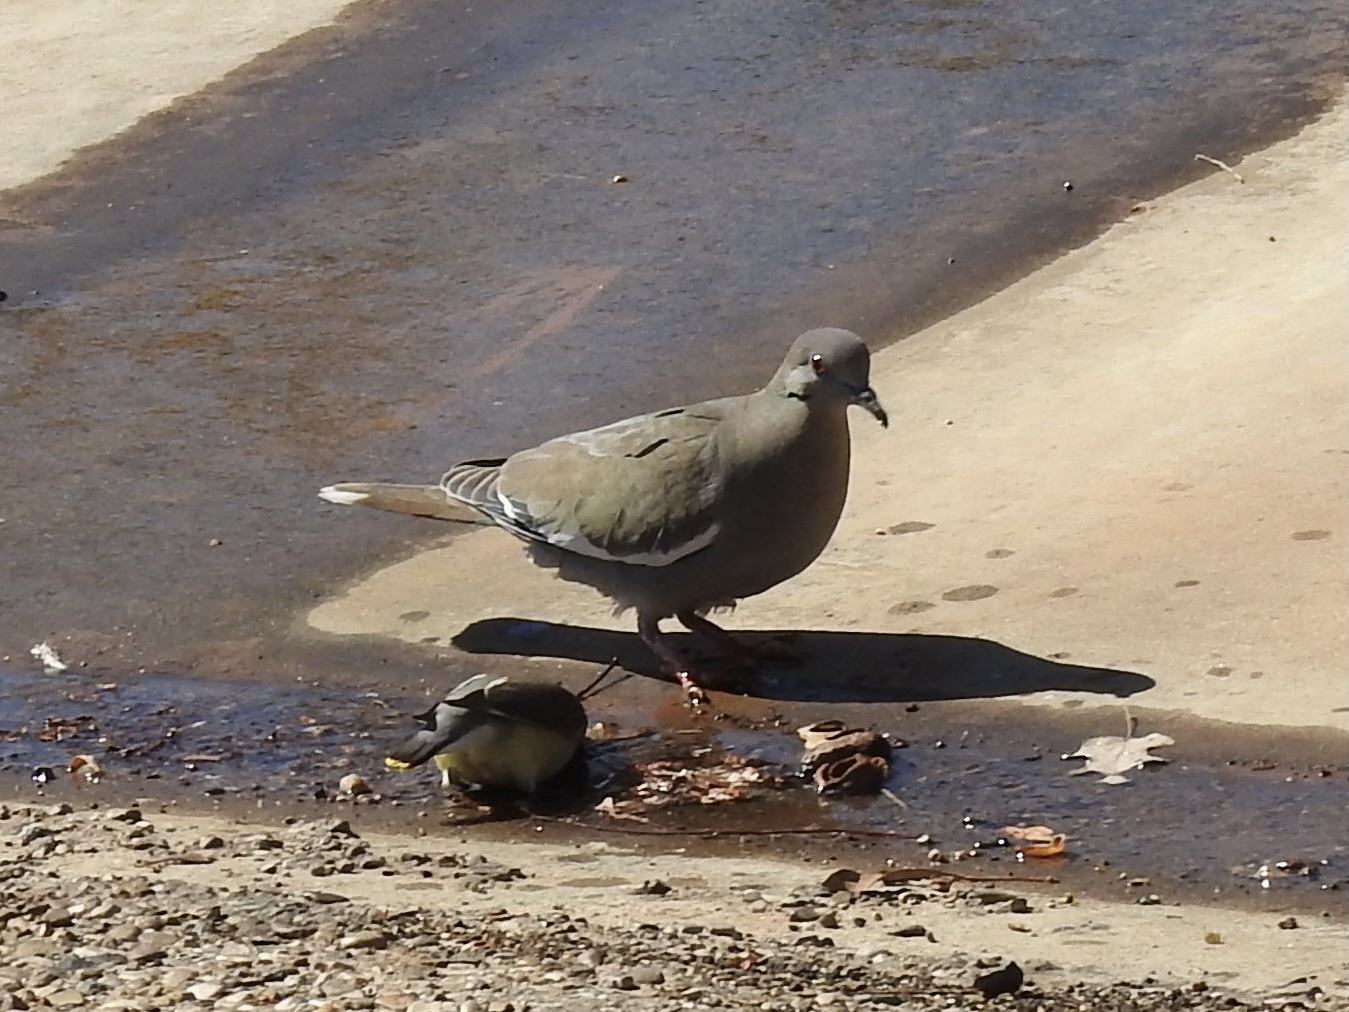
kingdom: Animalia
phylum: Chordata
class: Aves
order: Columbiformes
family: Columbidae
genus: Zenaida
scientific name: Zenaida asiatica
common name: White-winged dove
